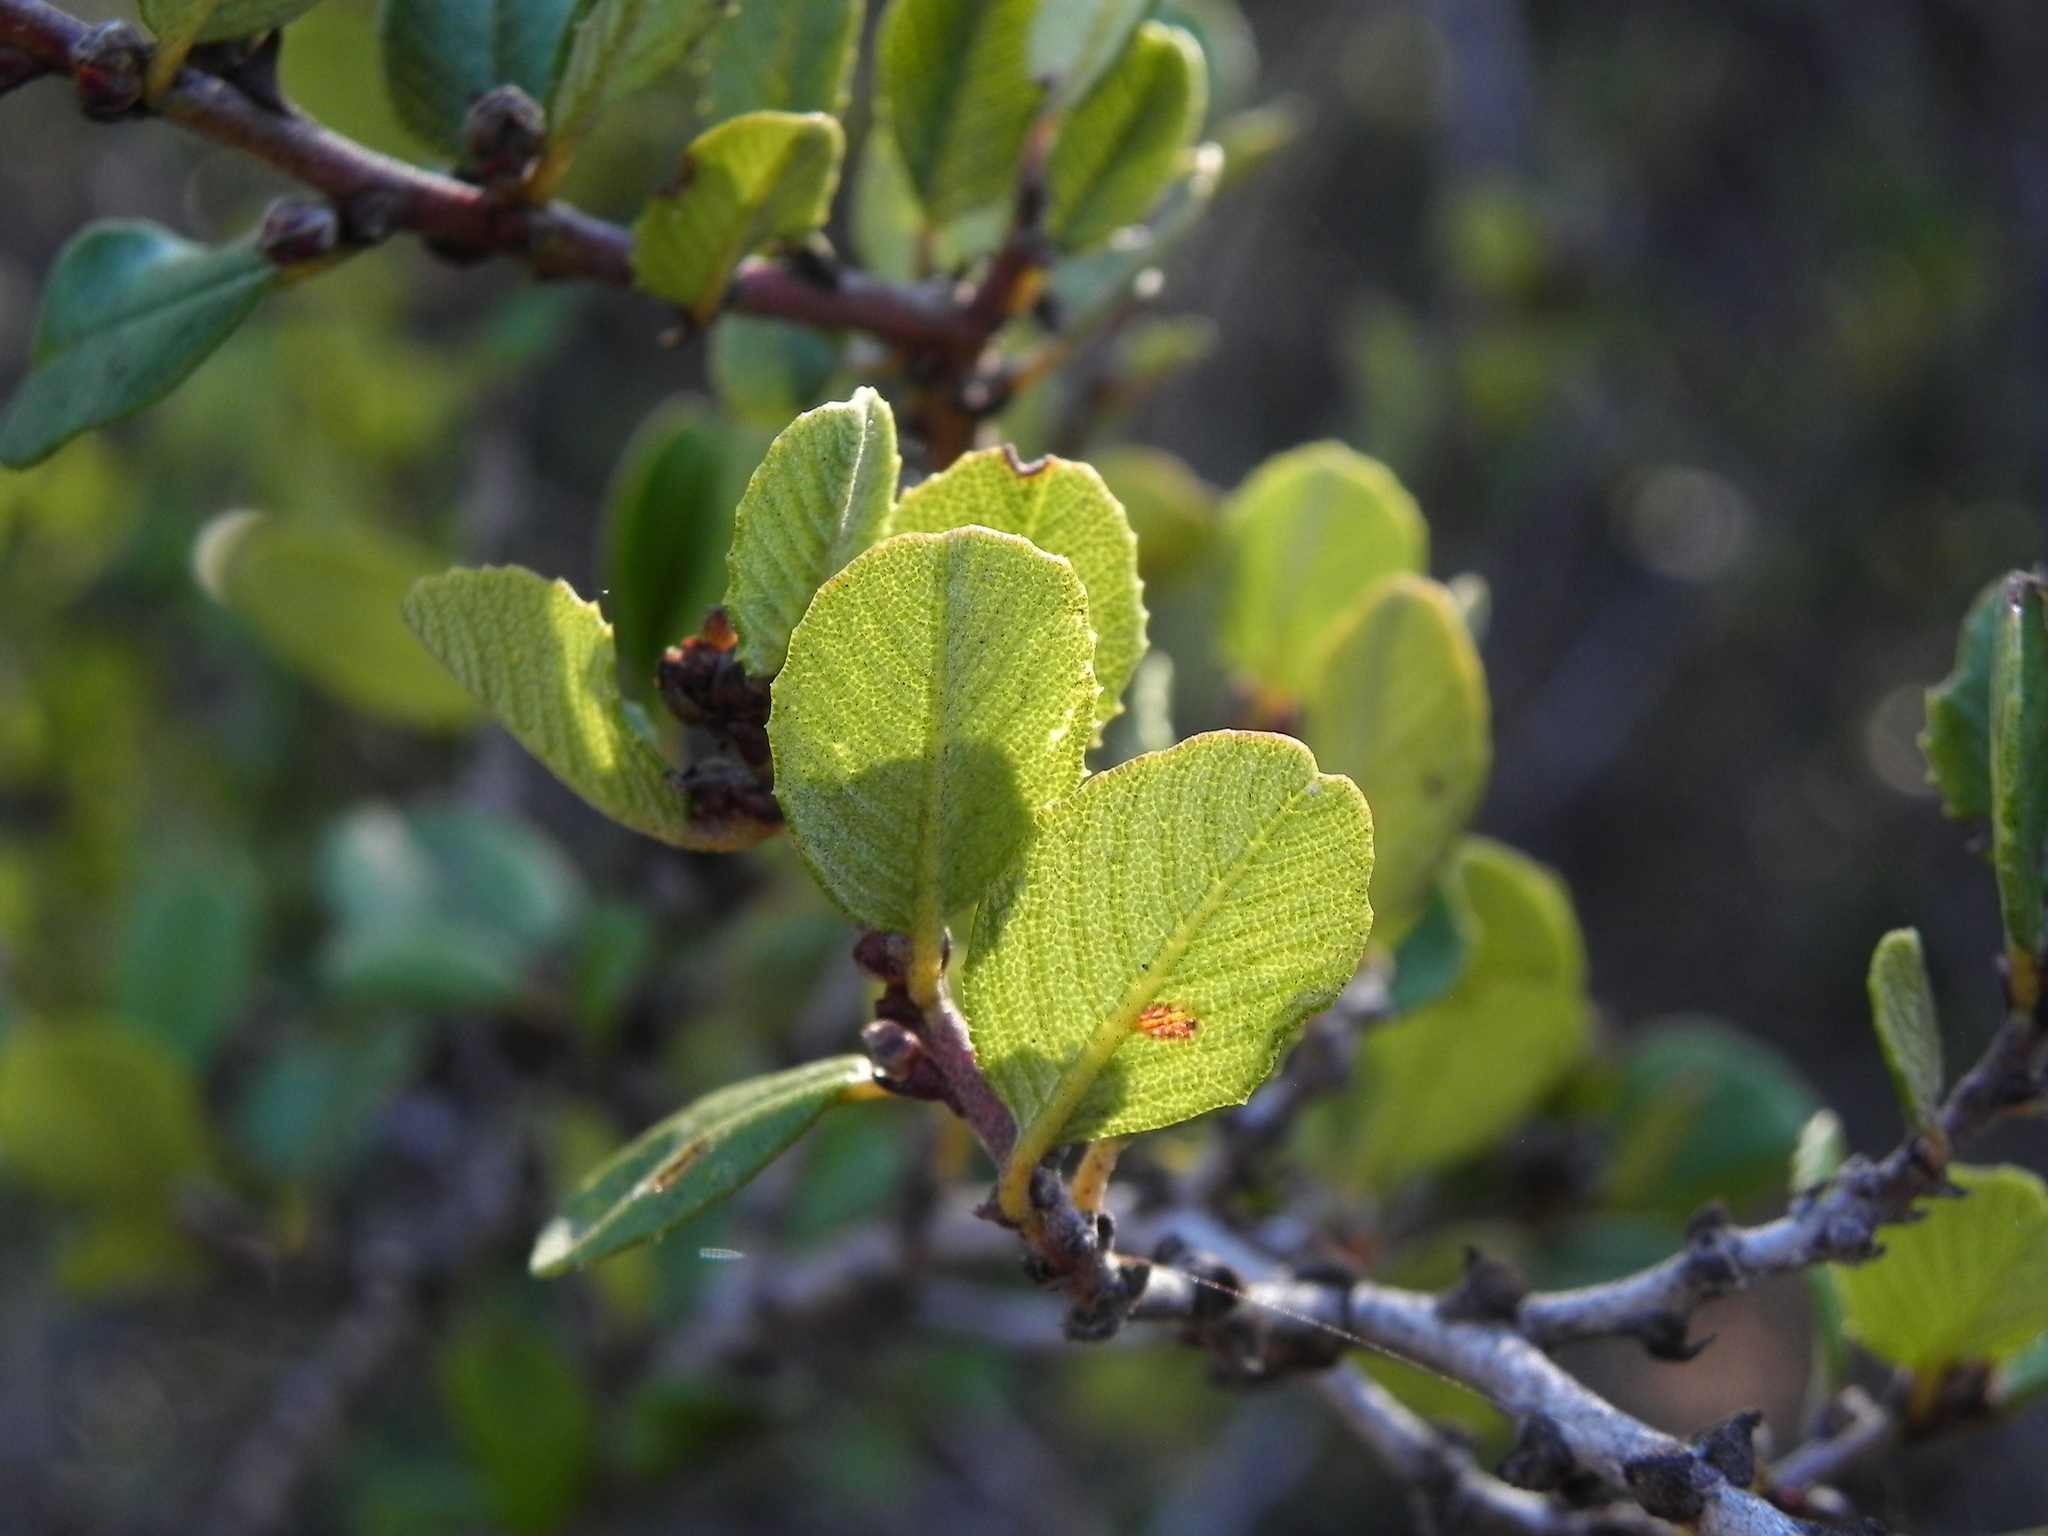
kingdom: Plantae
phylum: Tracheophyta
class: Magnoliopsida
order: Rosales
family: Rhamnaceae
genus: Ceanothus
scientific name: Ceanothus verrucosus
